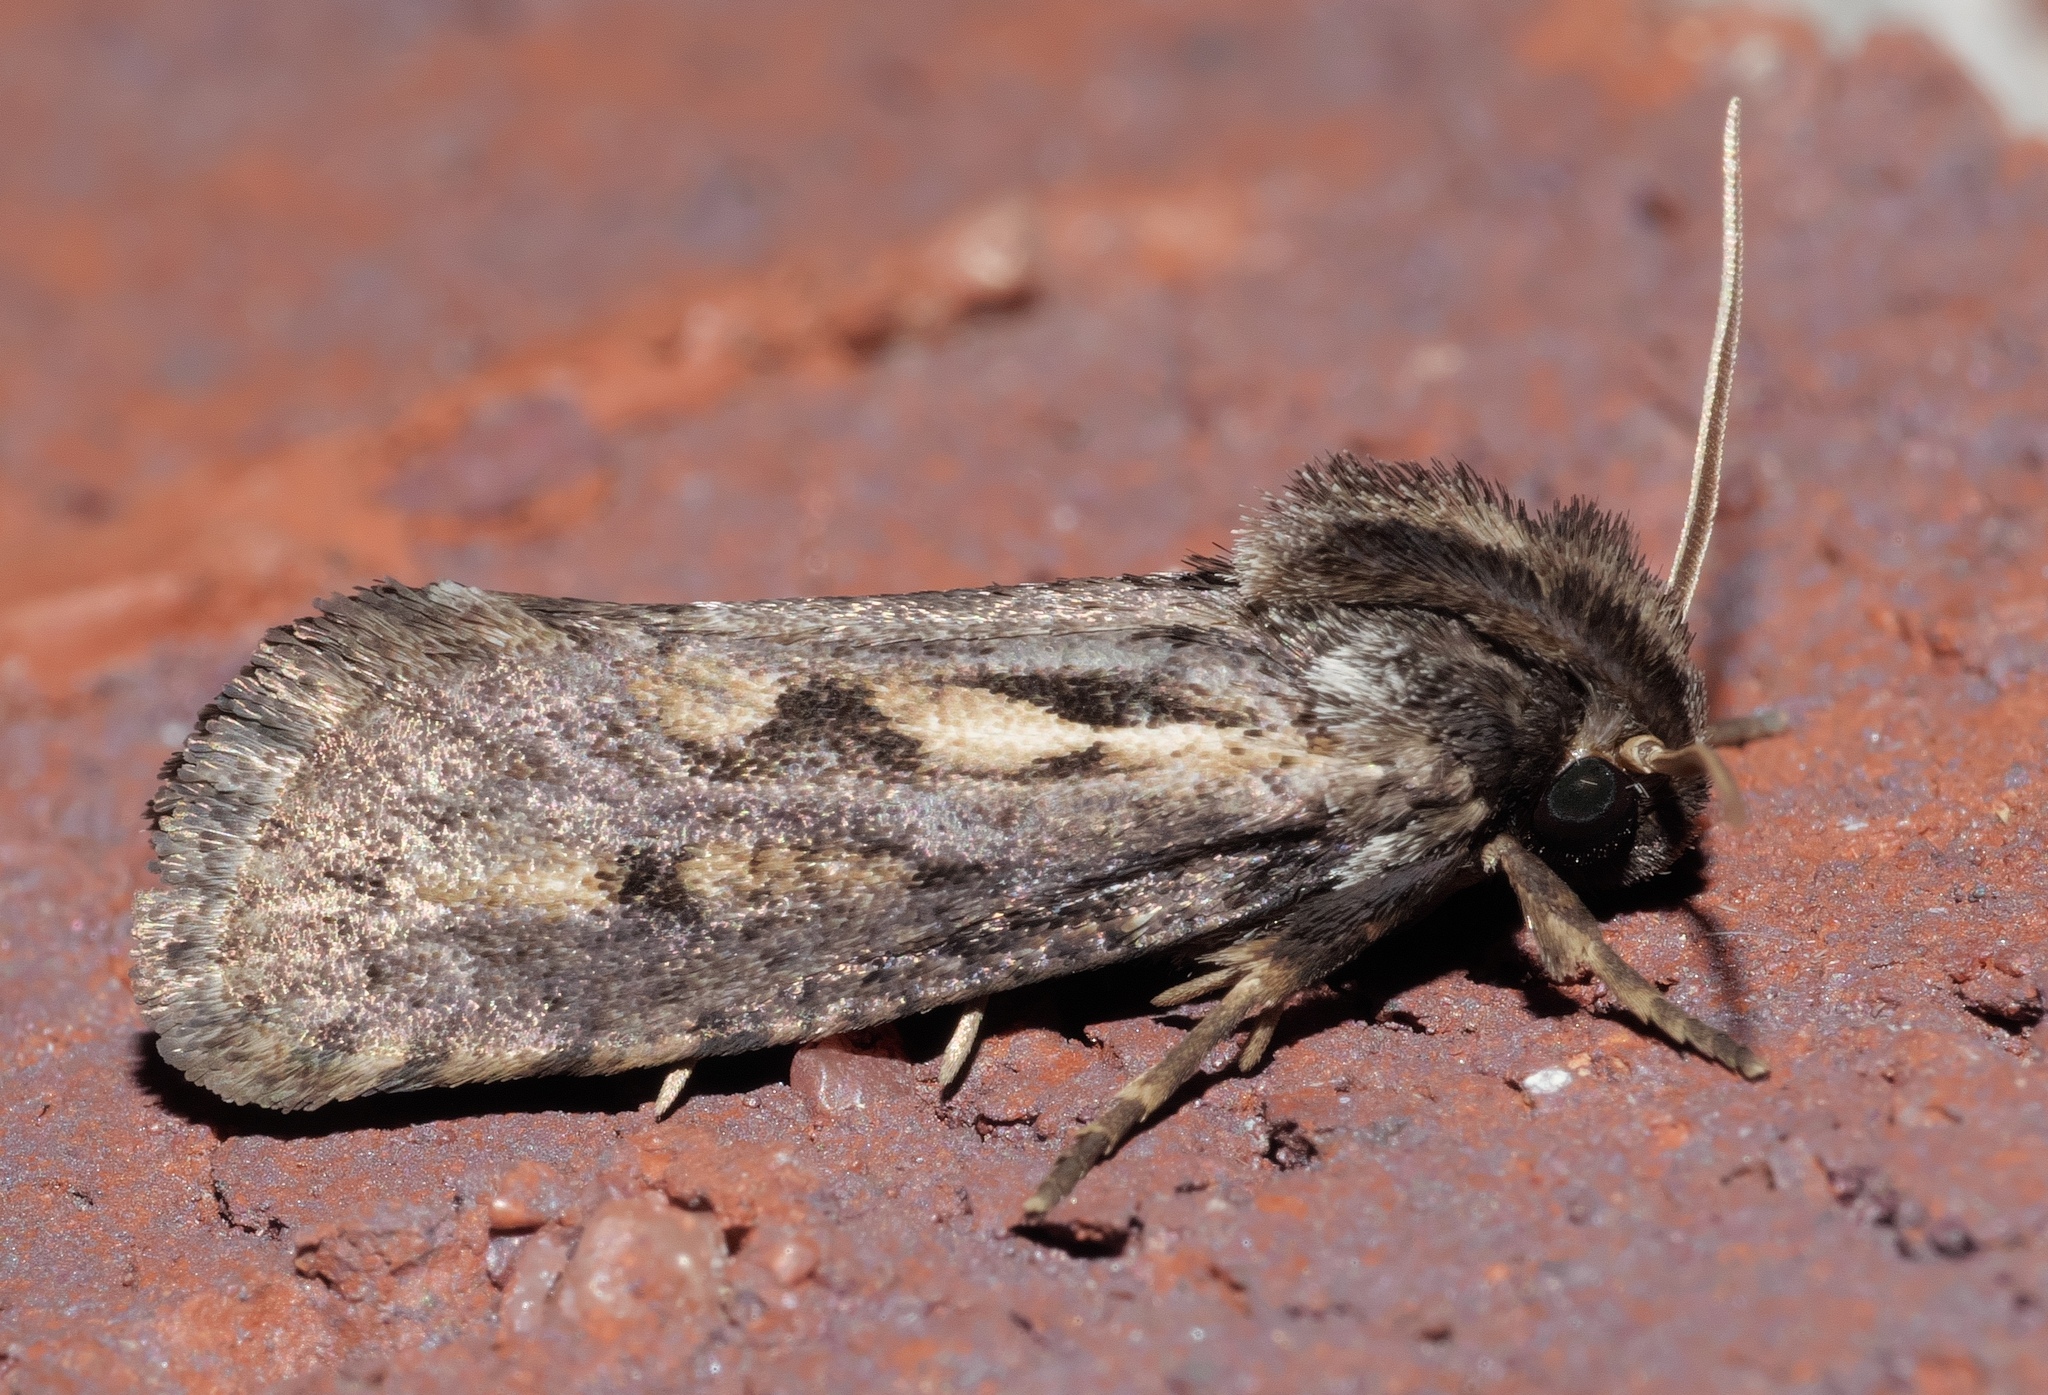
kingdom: Animalia
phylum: Arthropoda
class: Insecta
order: Lepidoptera
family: Tineidae
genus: Acrolophus
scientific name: Acrolophus popeanella
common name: Clemens' grass tubeworm moth
